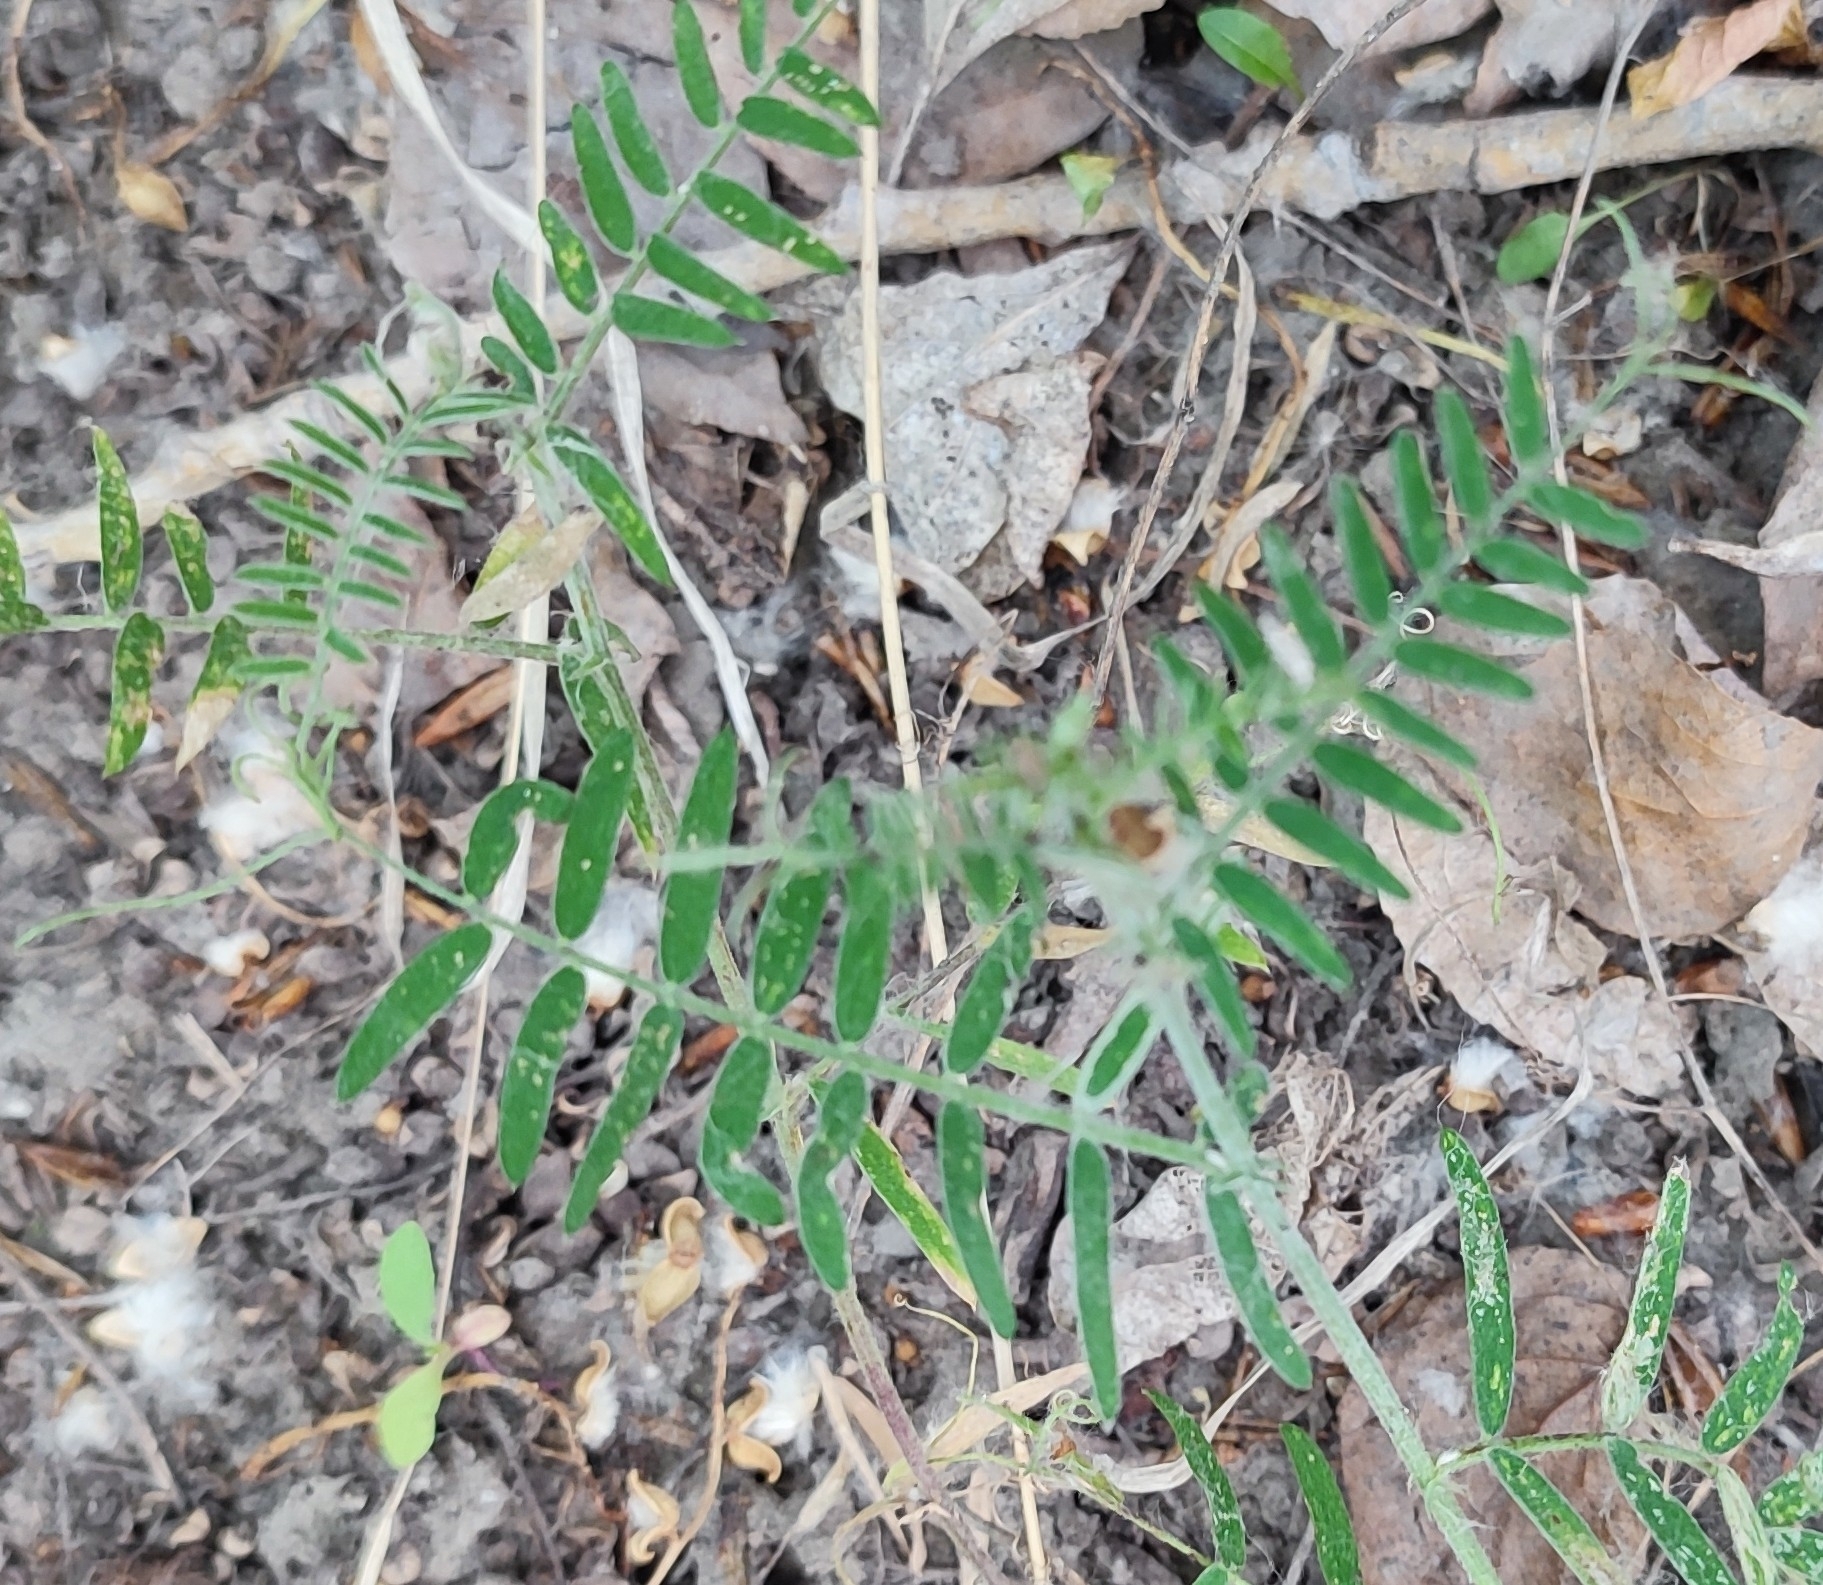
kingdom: Plantae
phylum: Tracheophyta
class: Magnoliopsida
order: Fabales
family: Fabaceae
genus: Vicia
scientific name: Vicia cracca
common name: Bird vetch
